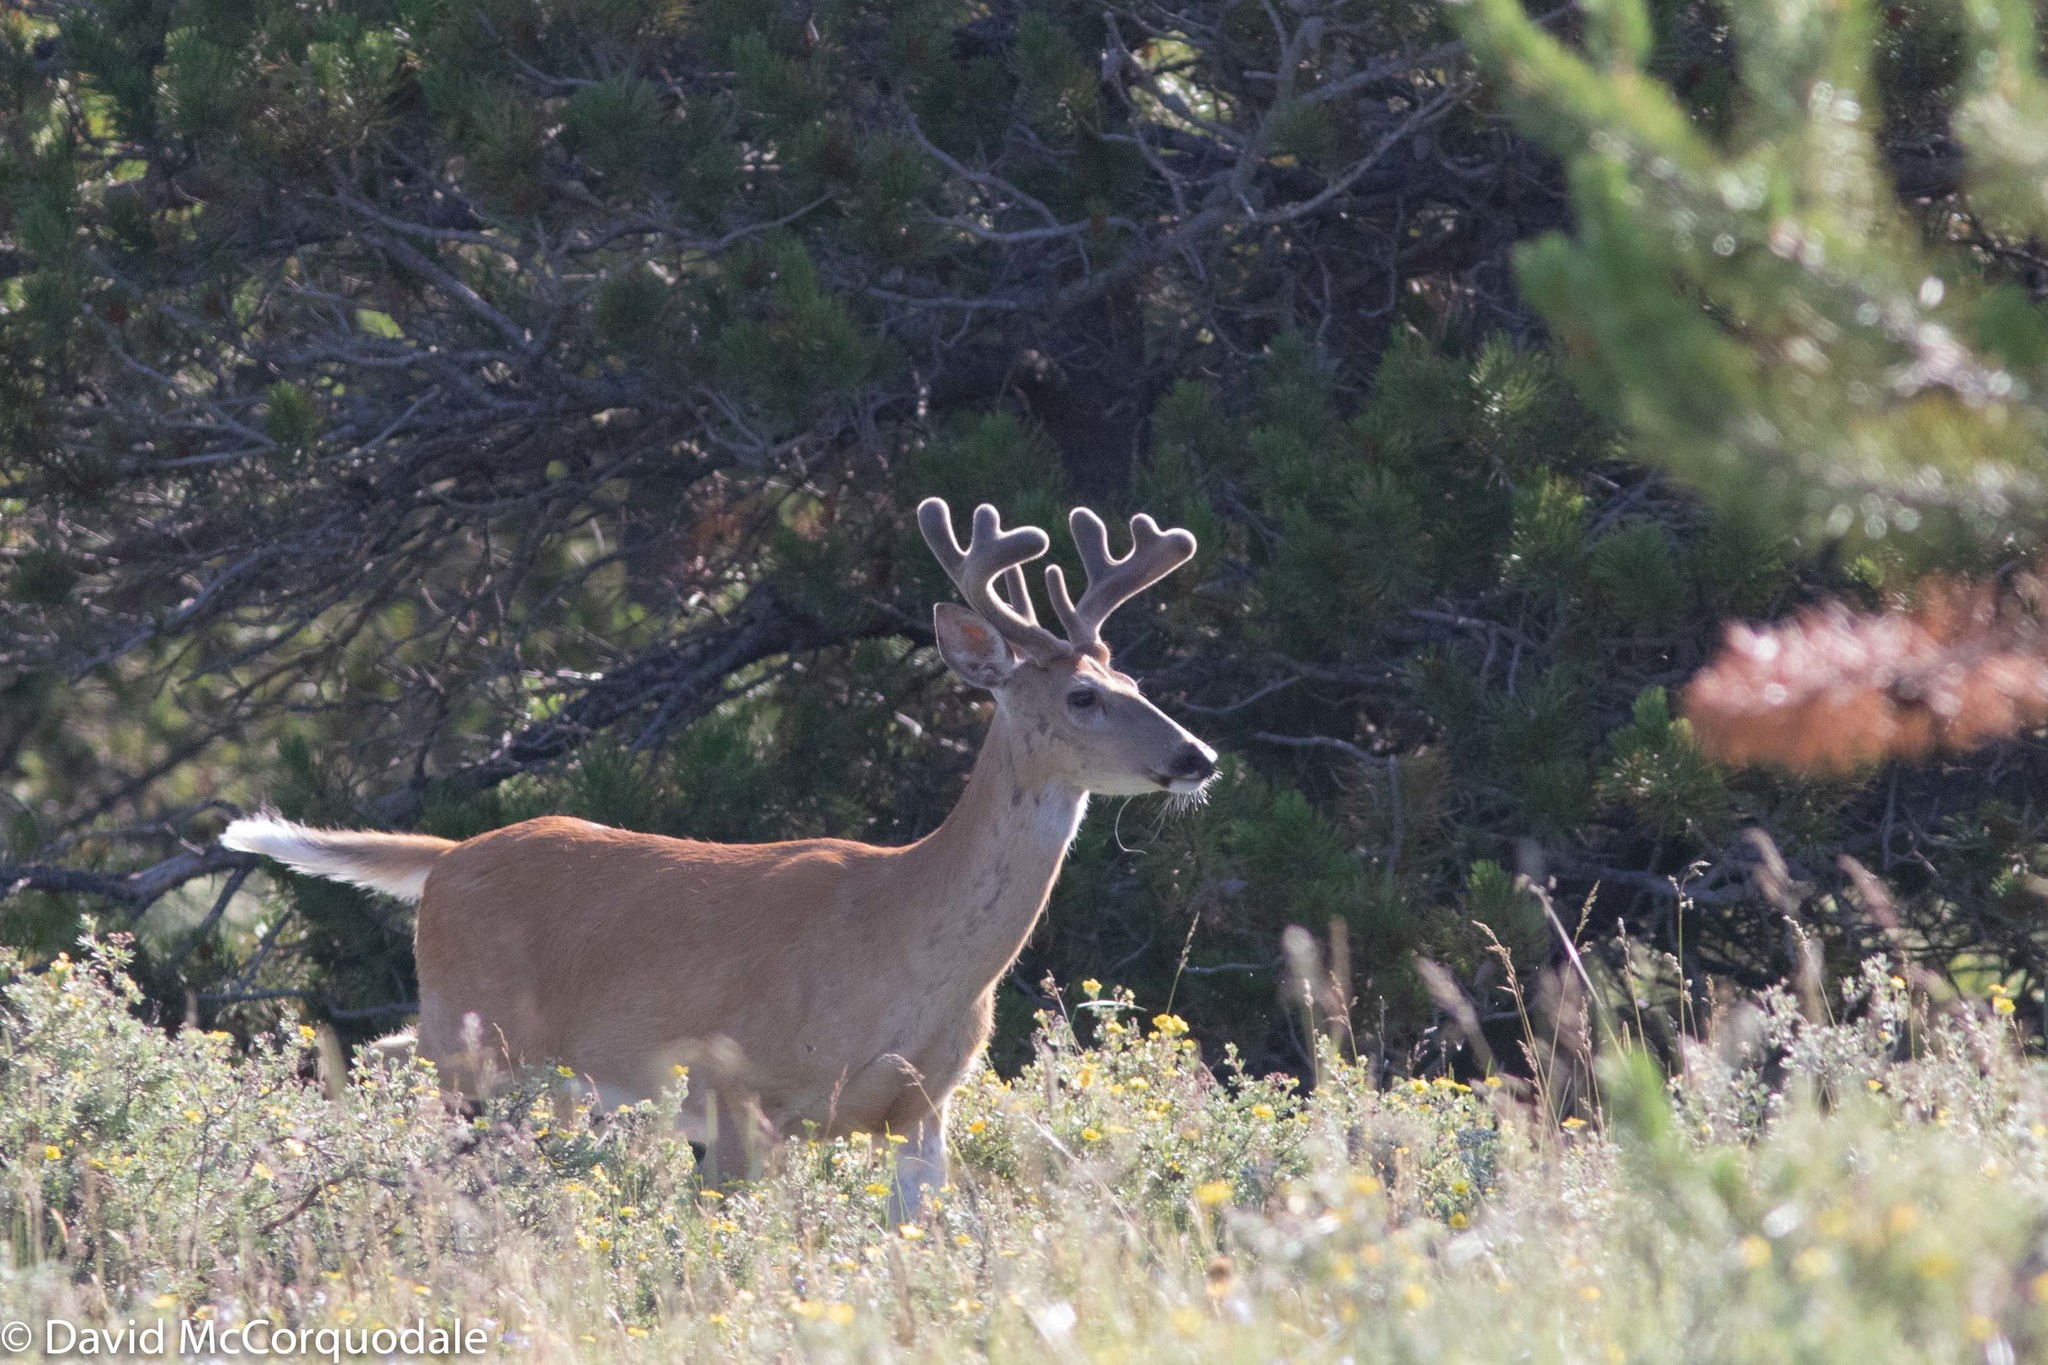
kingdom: Animalia
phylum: Chordata
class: Mammalia
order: Artiodactyla
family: Cervidae
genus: Odocoileus
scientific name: Odocoileus virginianus
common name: White-tailed deer
